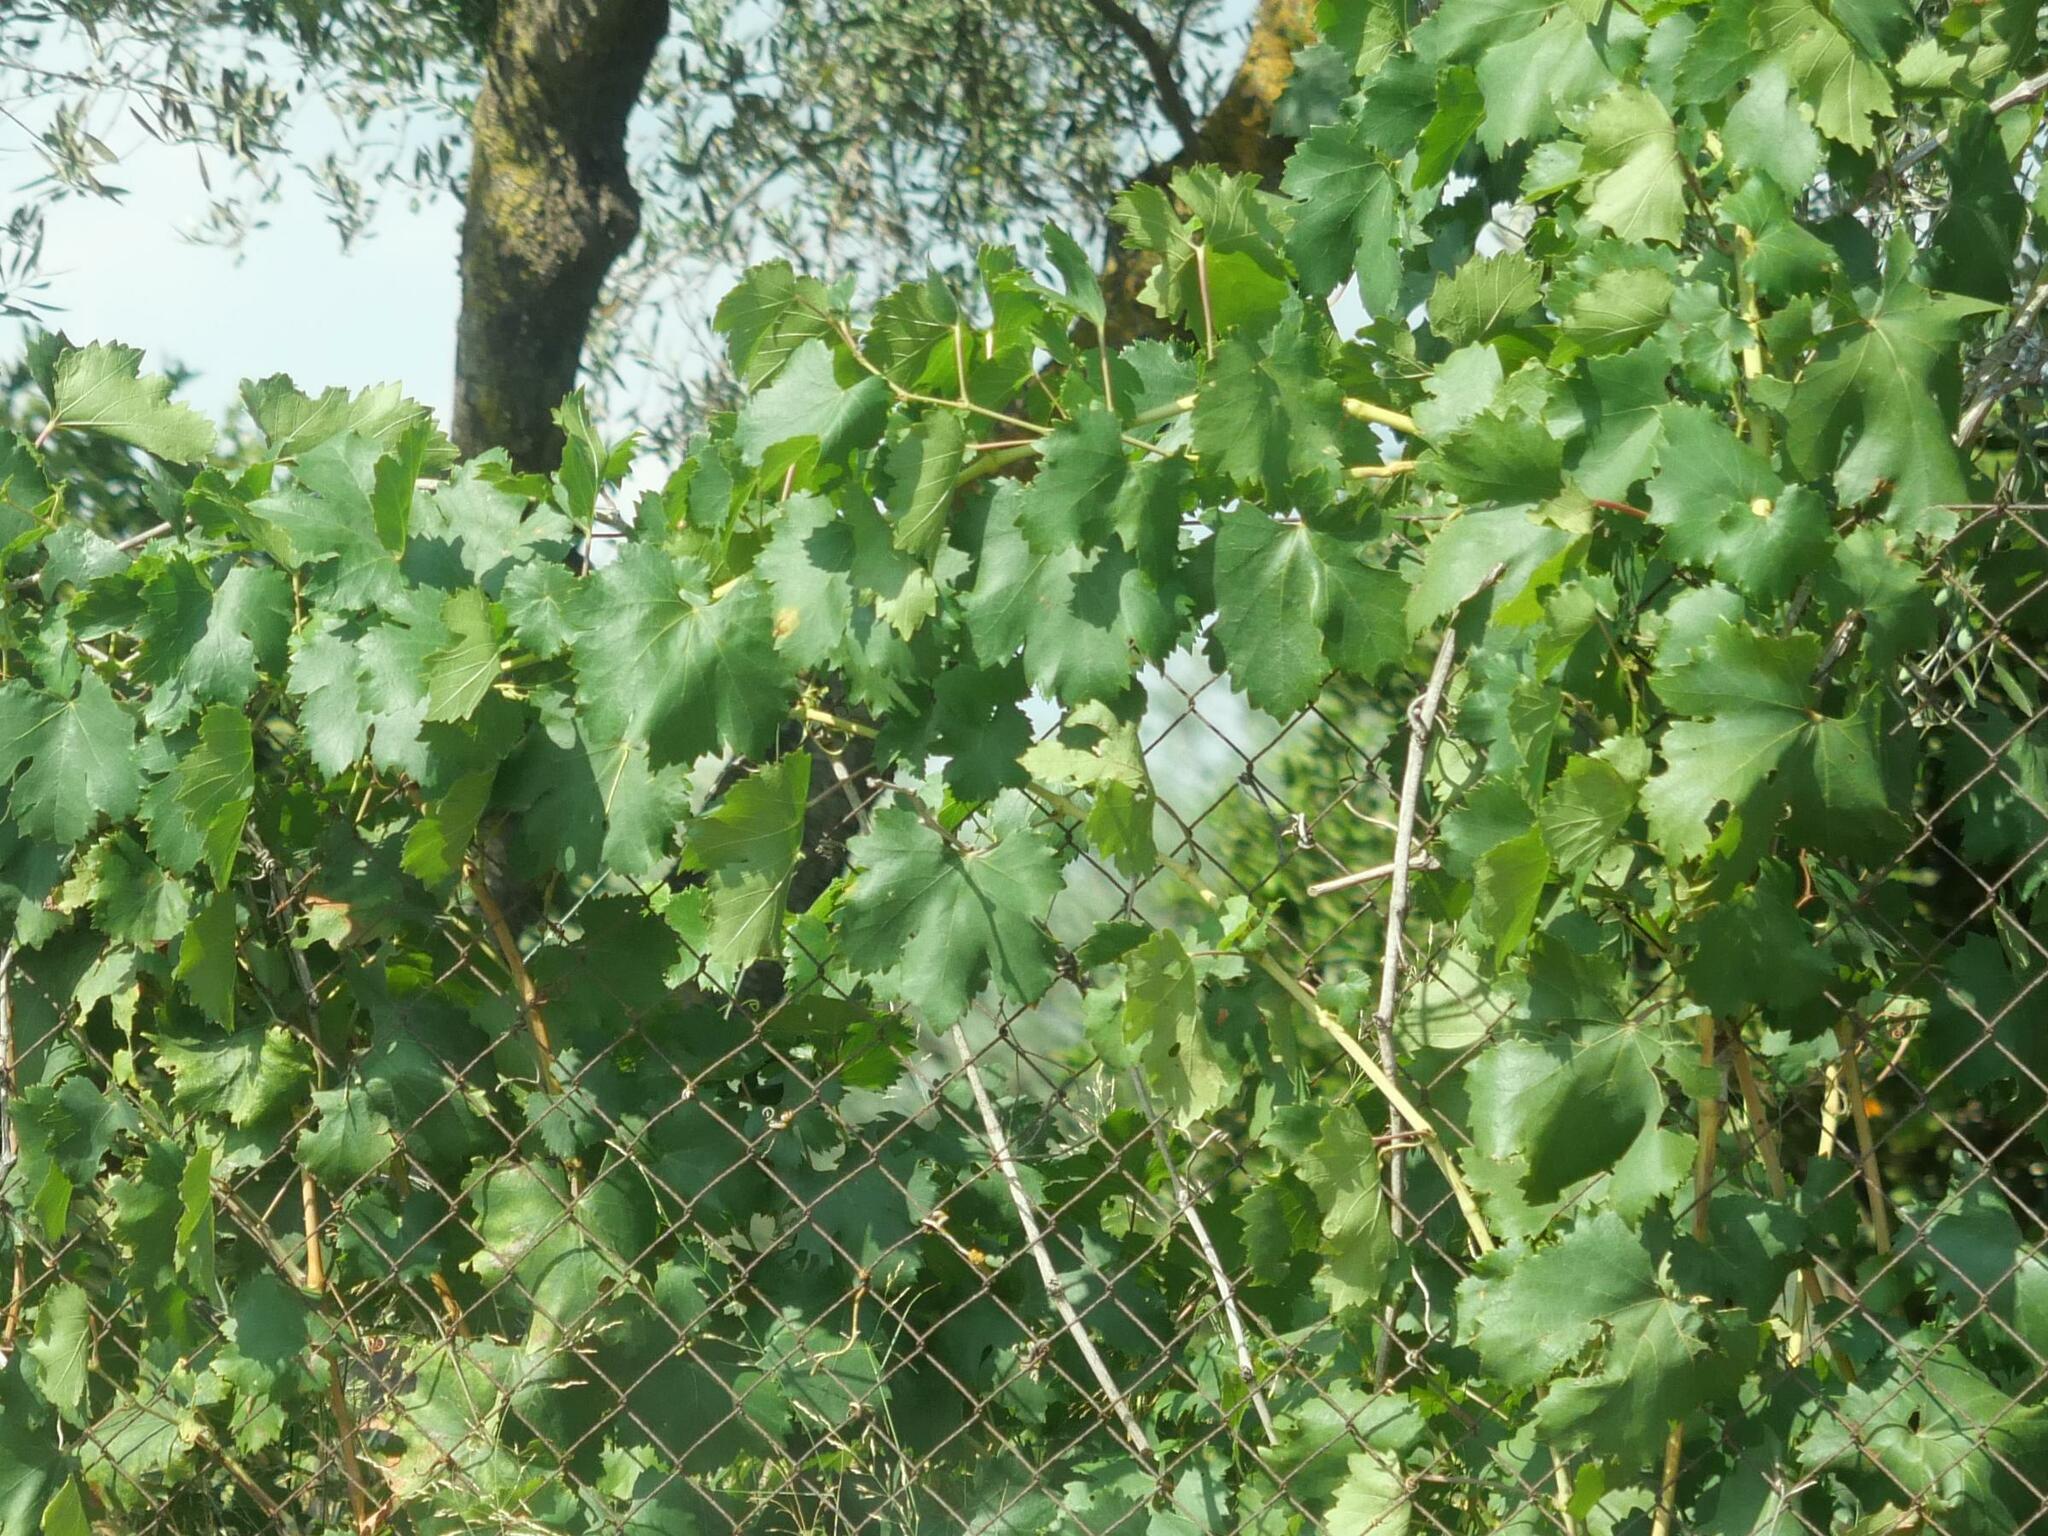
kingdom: Plantae
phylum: Tracheophyta
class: Magnoliopsida
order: Vitales
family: Vitaceae
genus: Vitis
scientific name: Vitis vinifera
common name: Grape-vine
